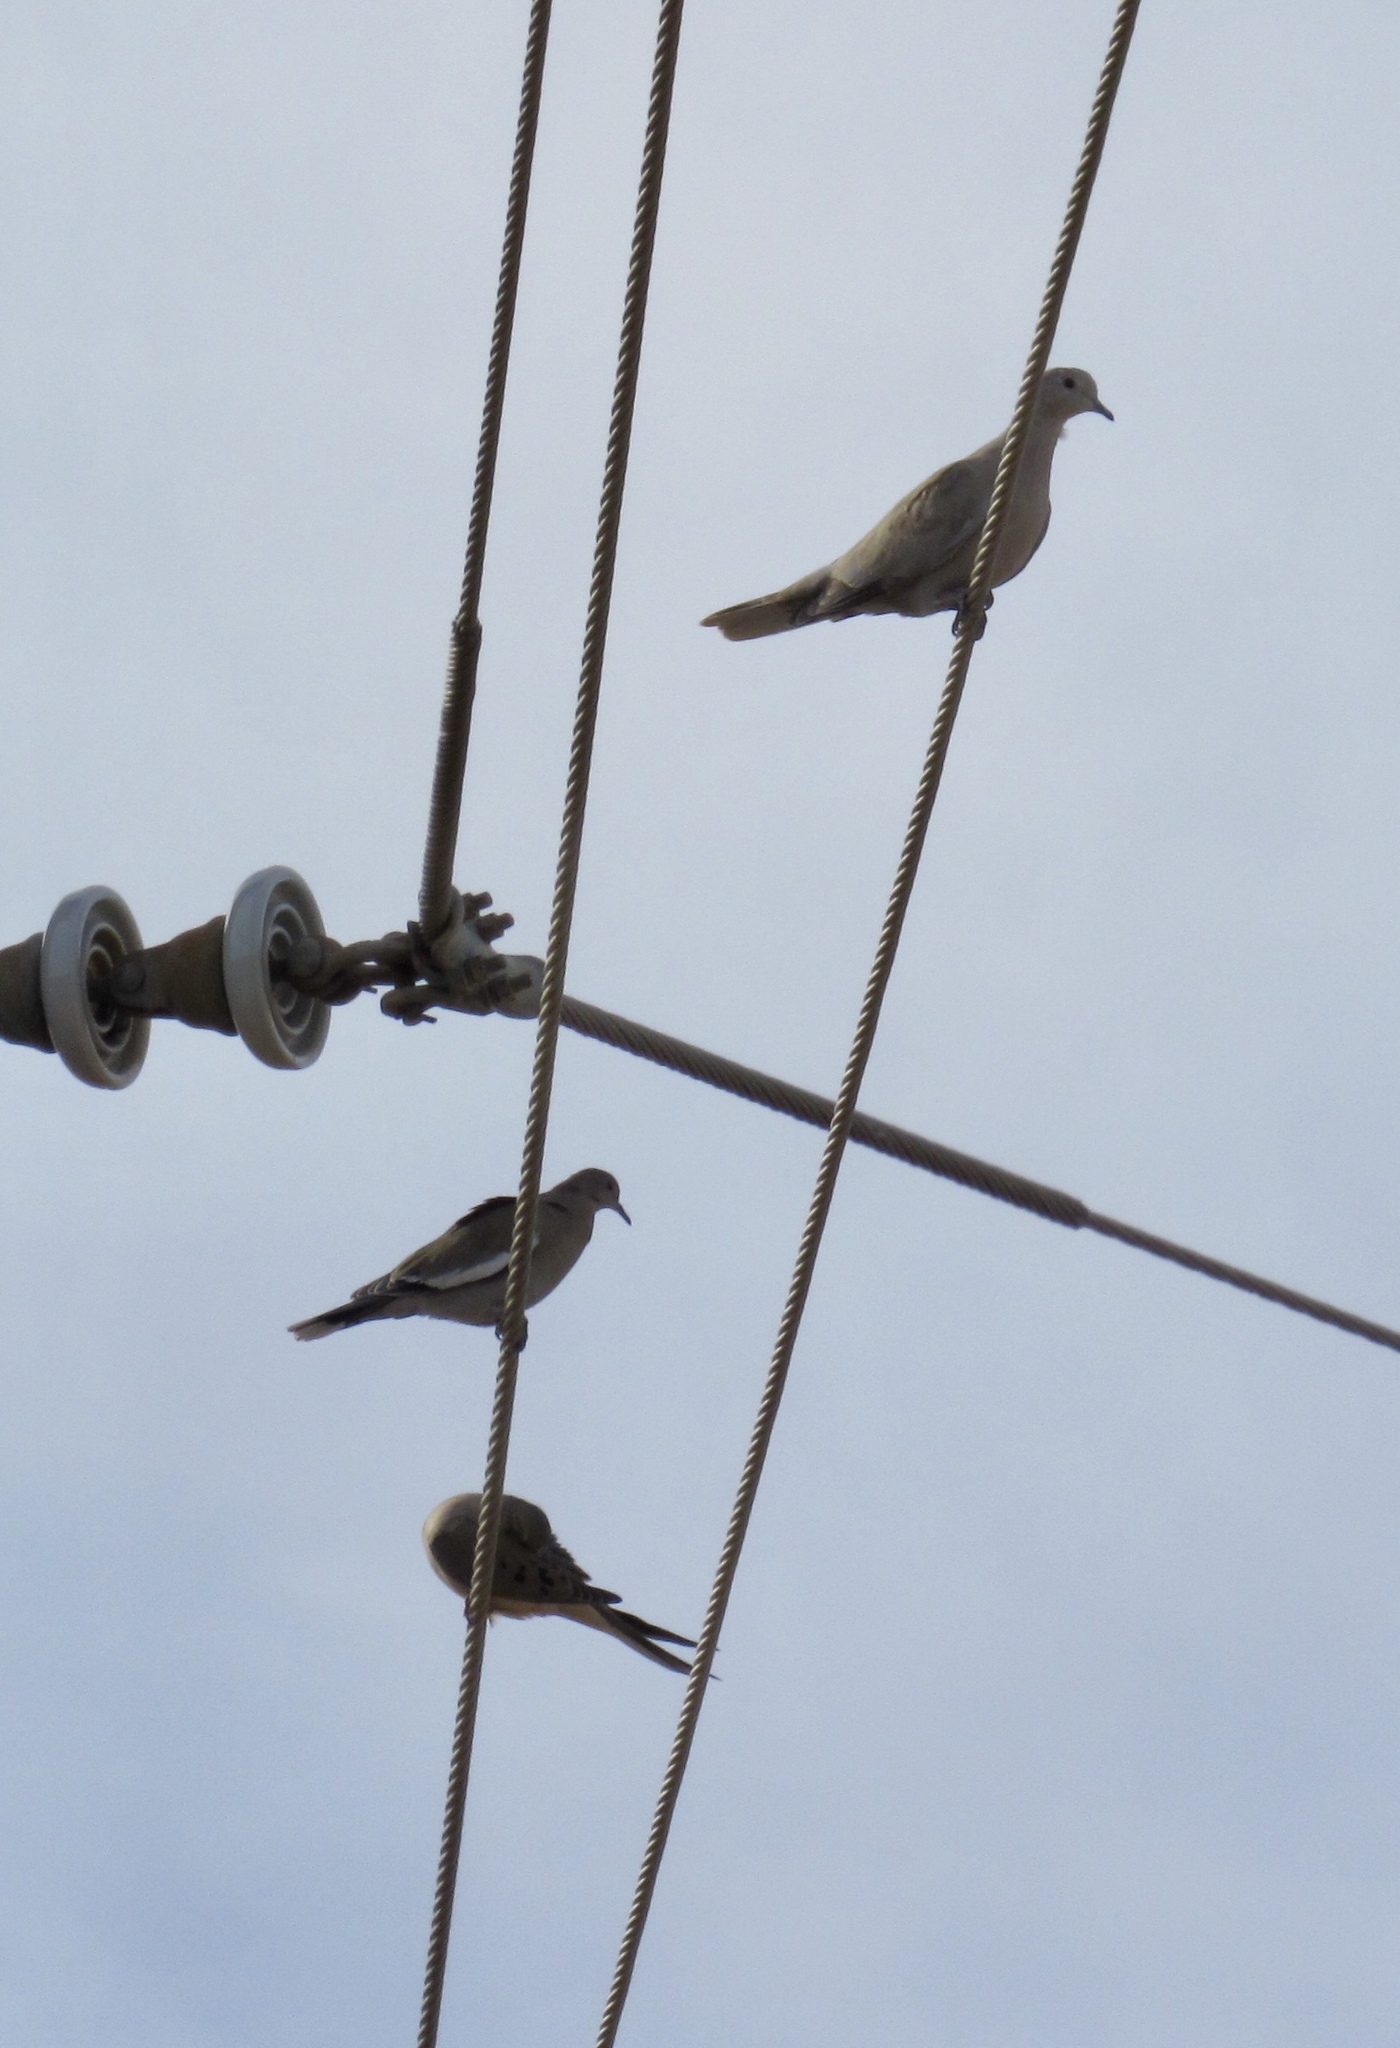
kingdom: Animalia
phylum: Chordata
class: Aves
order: Columbiformes
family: Columbidae
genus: Zenaida
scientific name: Zenaida asiatica
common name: White-winged dove
